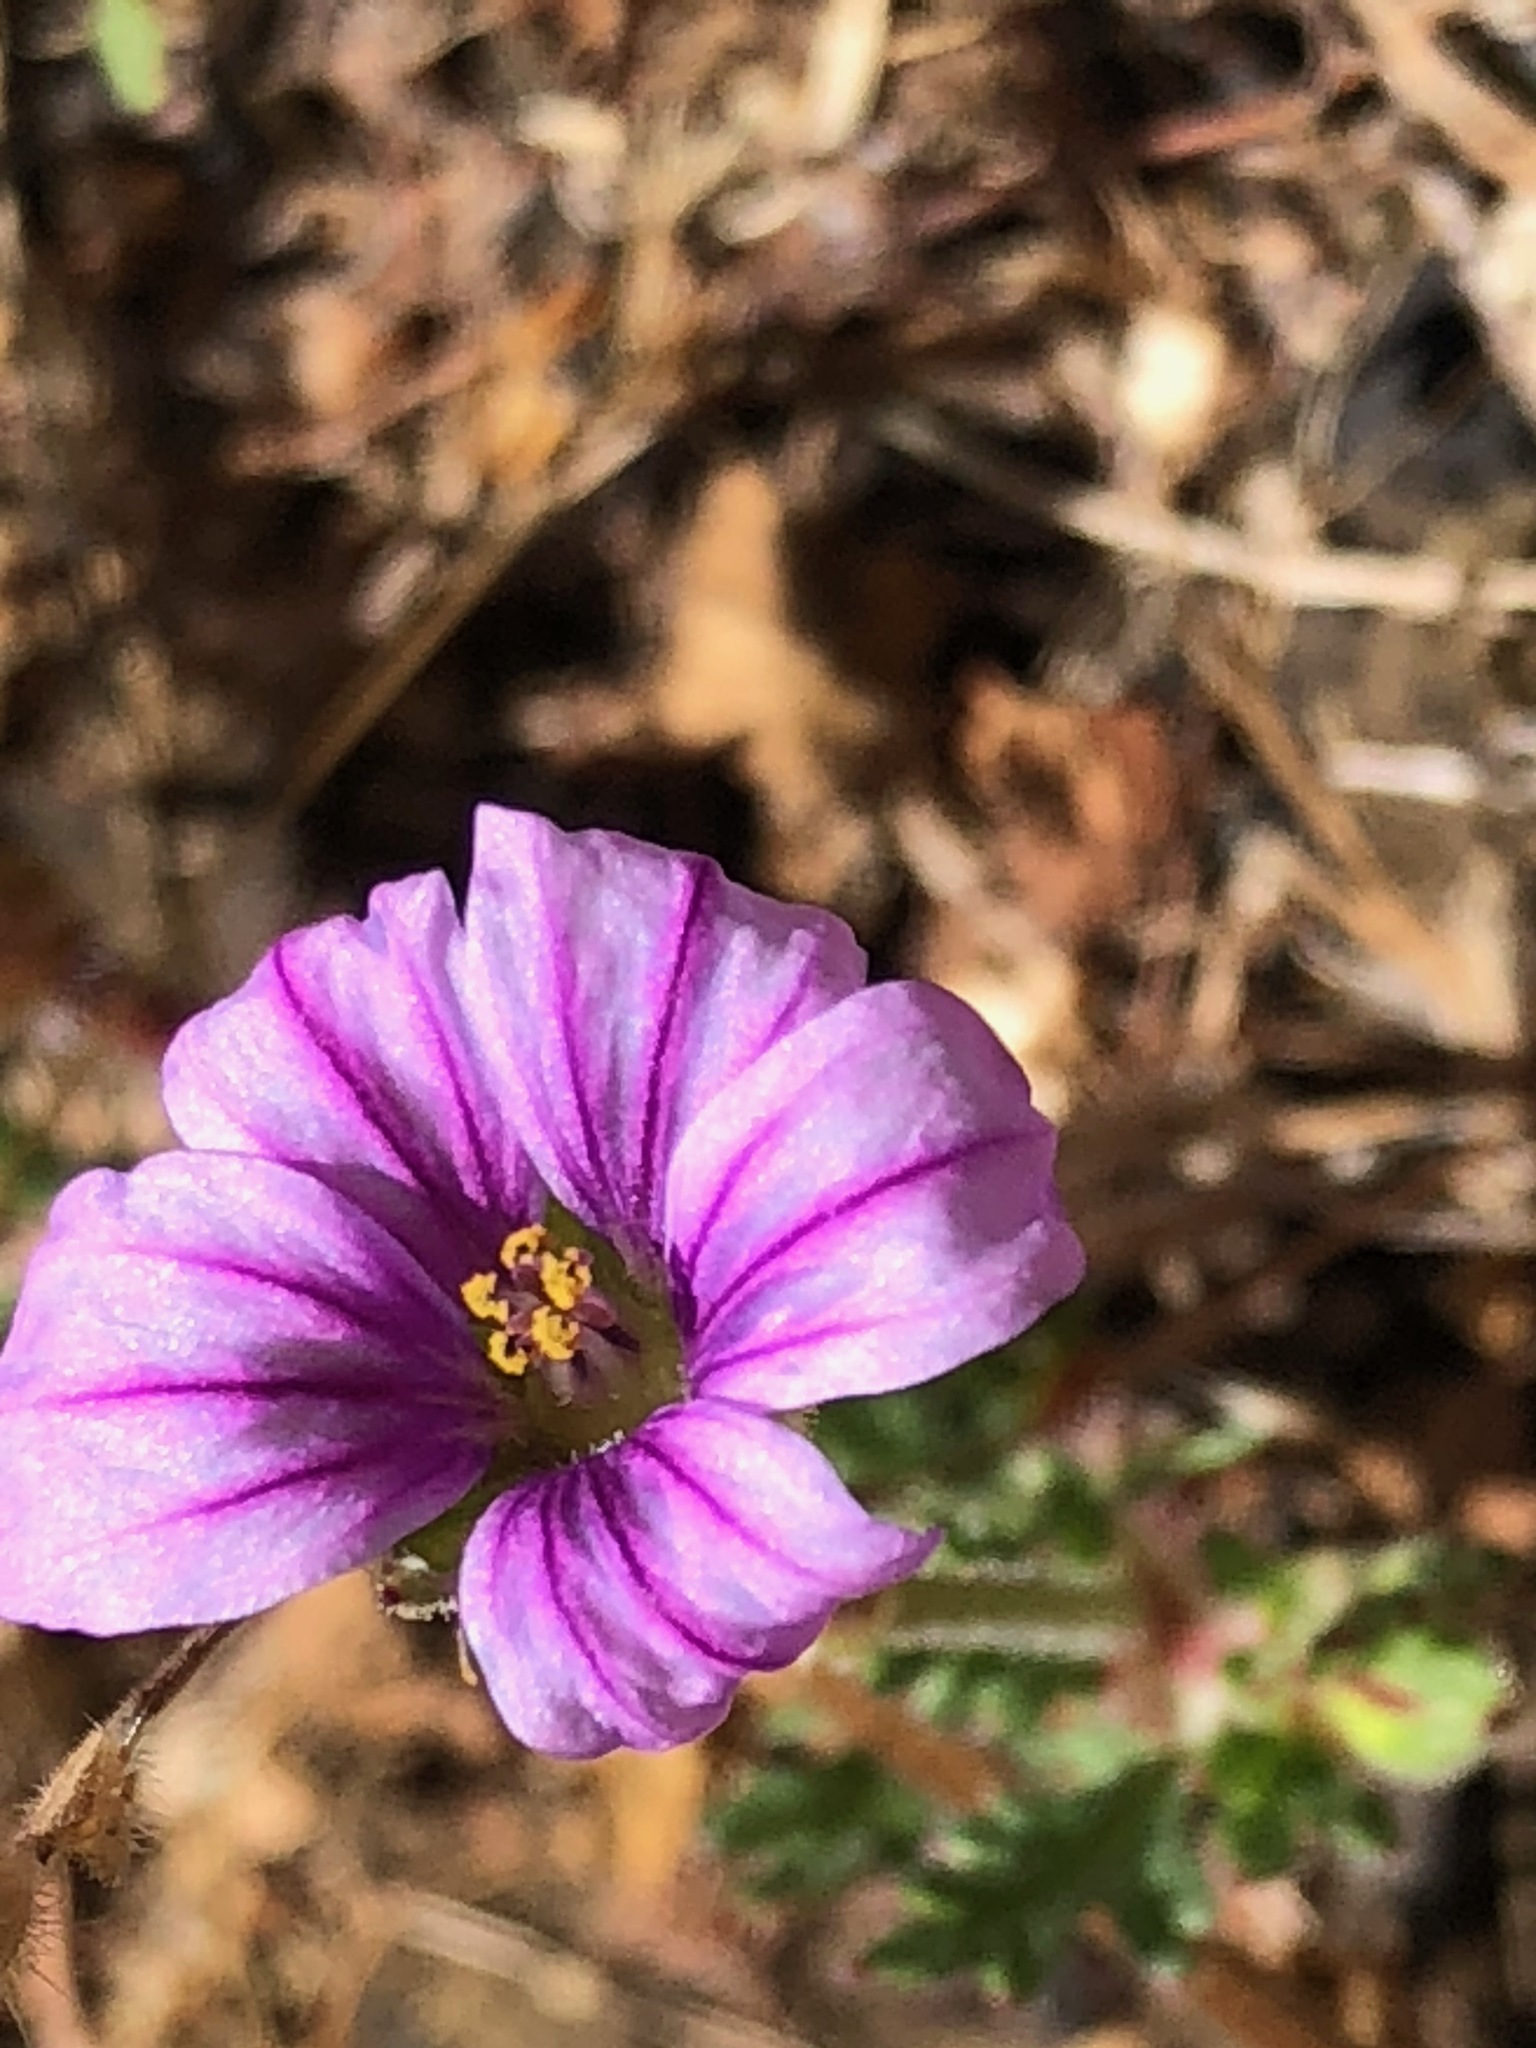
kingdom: Plantae
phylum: Tracheophyta
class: Magnoliopsida
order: Geraniales
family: Geraniaceae
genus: Erodium
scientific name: Erodium botrys
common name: Mediterranean stork's-bill
